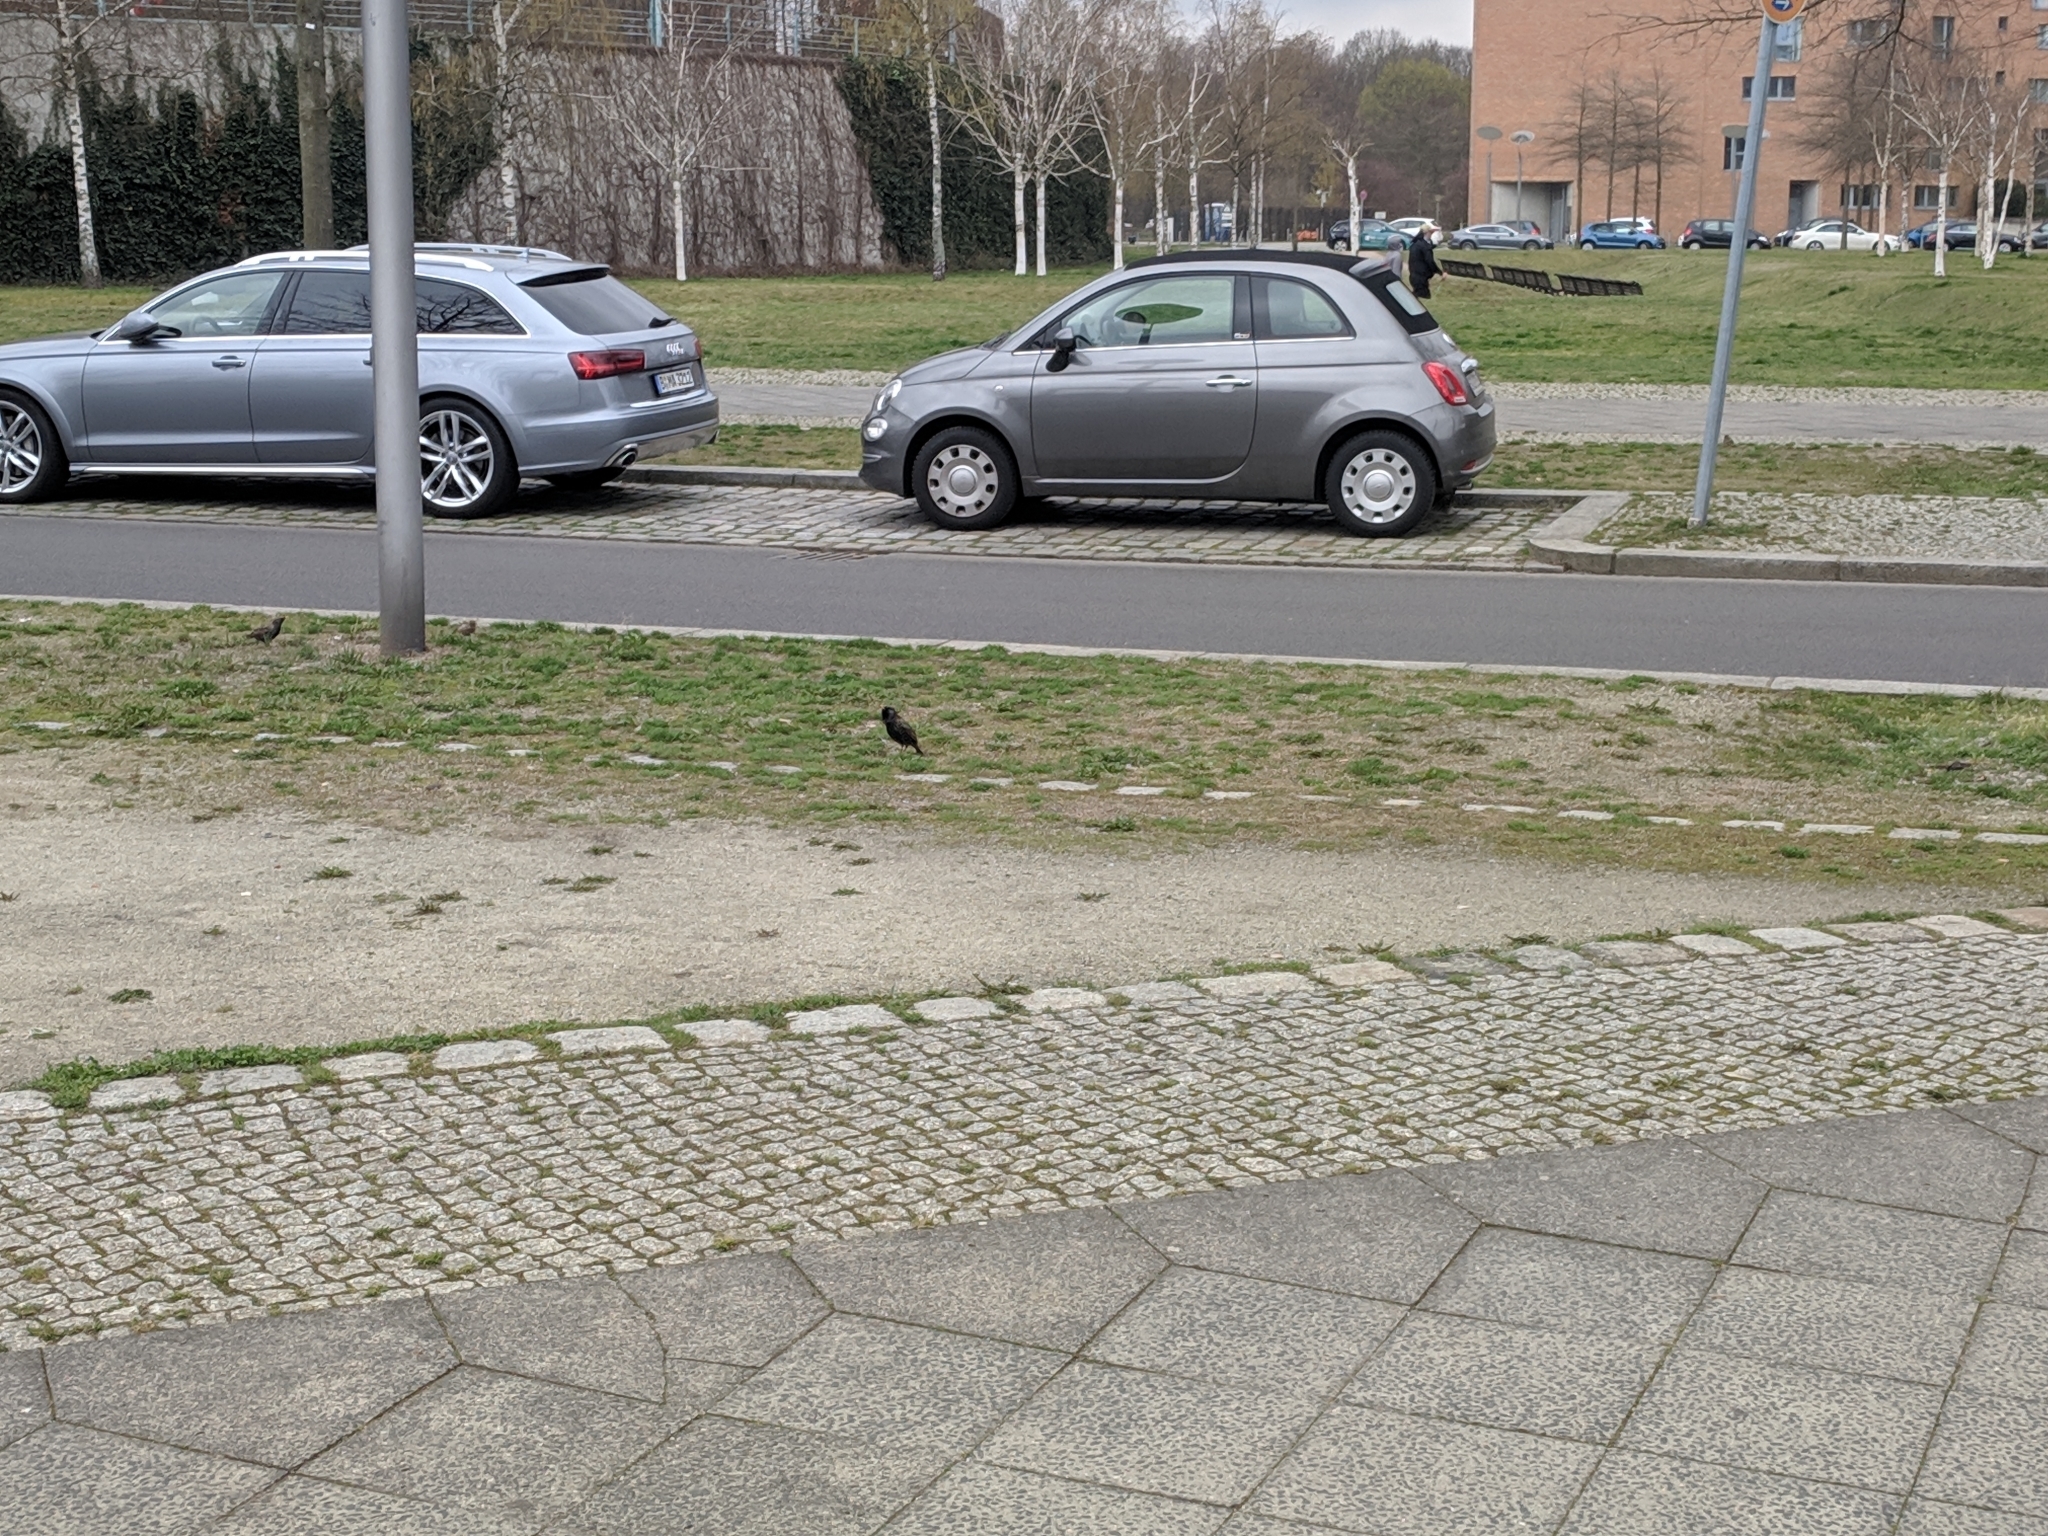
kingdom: Animalia
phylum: Chordata
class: Aves
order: Passeriformes
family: Sturnidae
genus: Sturnus
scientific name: Sturnus vulgaris
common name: Common starling
